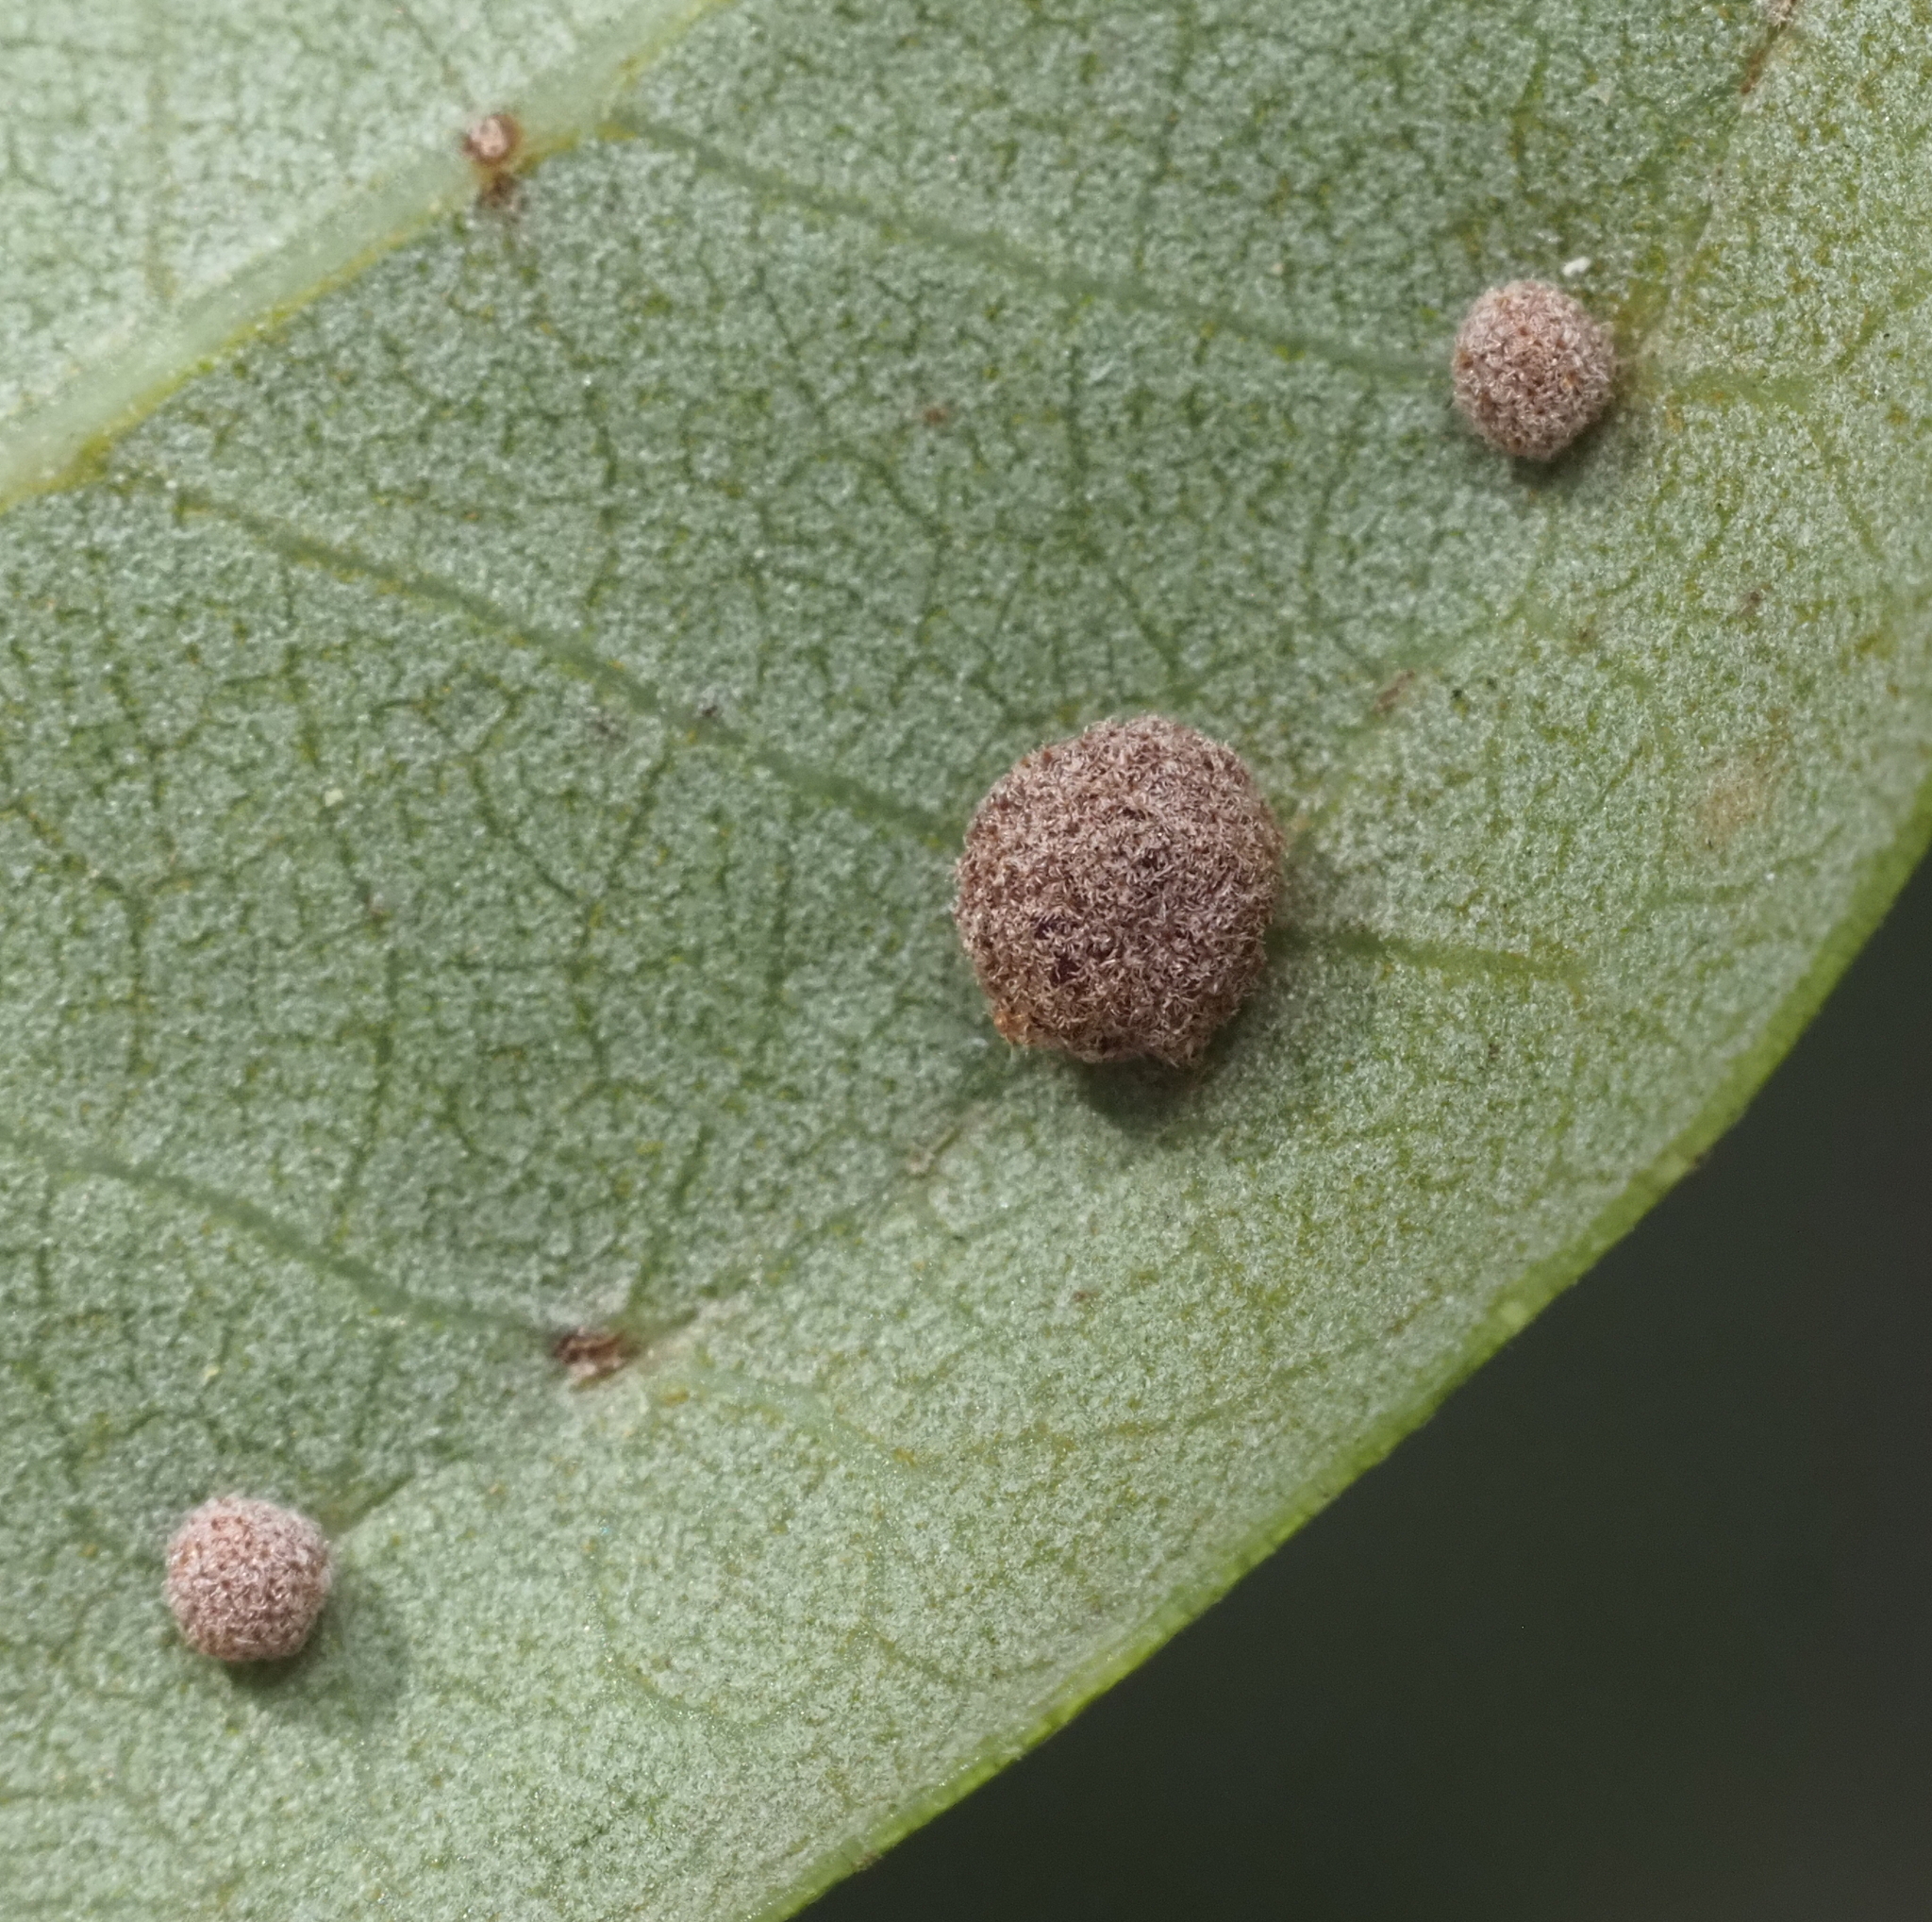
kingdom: Animalia
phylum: Arthropoda
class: Insecta
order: Hymenoptera
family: Cynipidae
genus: Belonocnema
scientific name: Belonocnema kinseyi
